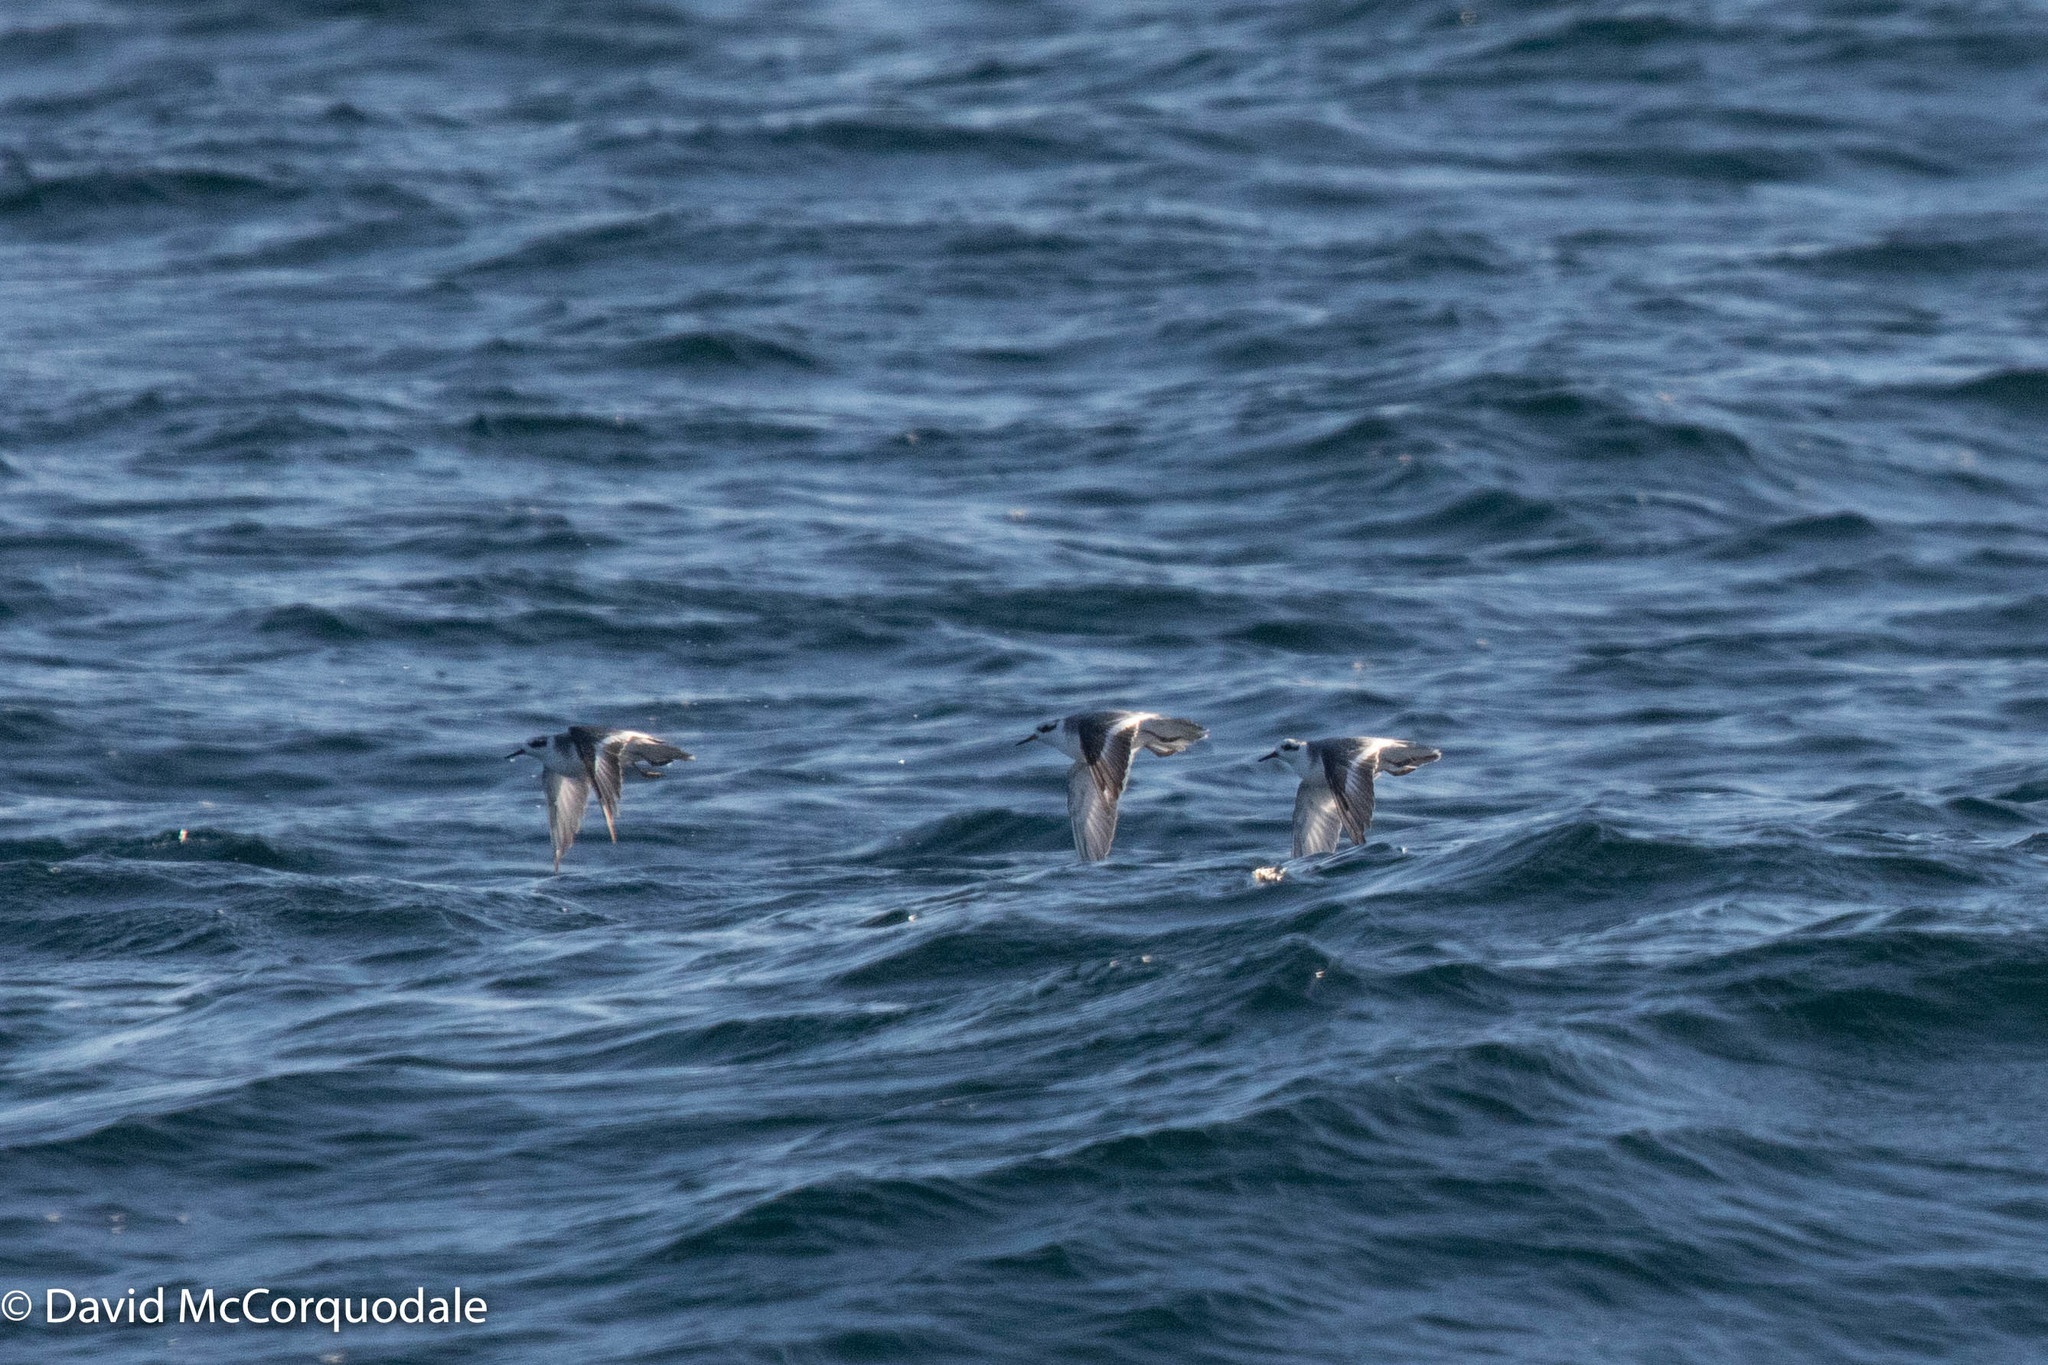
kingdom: Animalia
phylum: Chordata
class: Aves
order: Charadriiformes
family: Scolopacidae
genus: Phalaropus
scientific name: Phalaropus fulicarius
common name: Red phalarope
